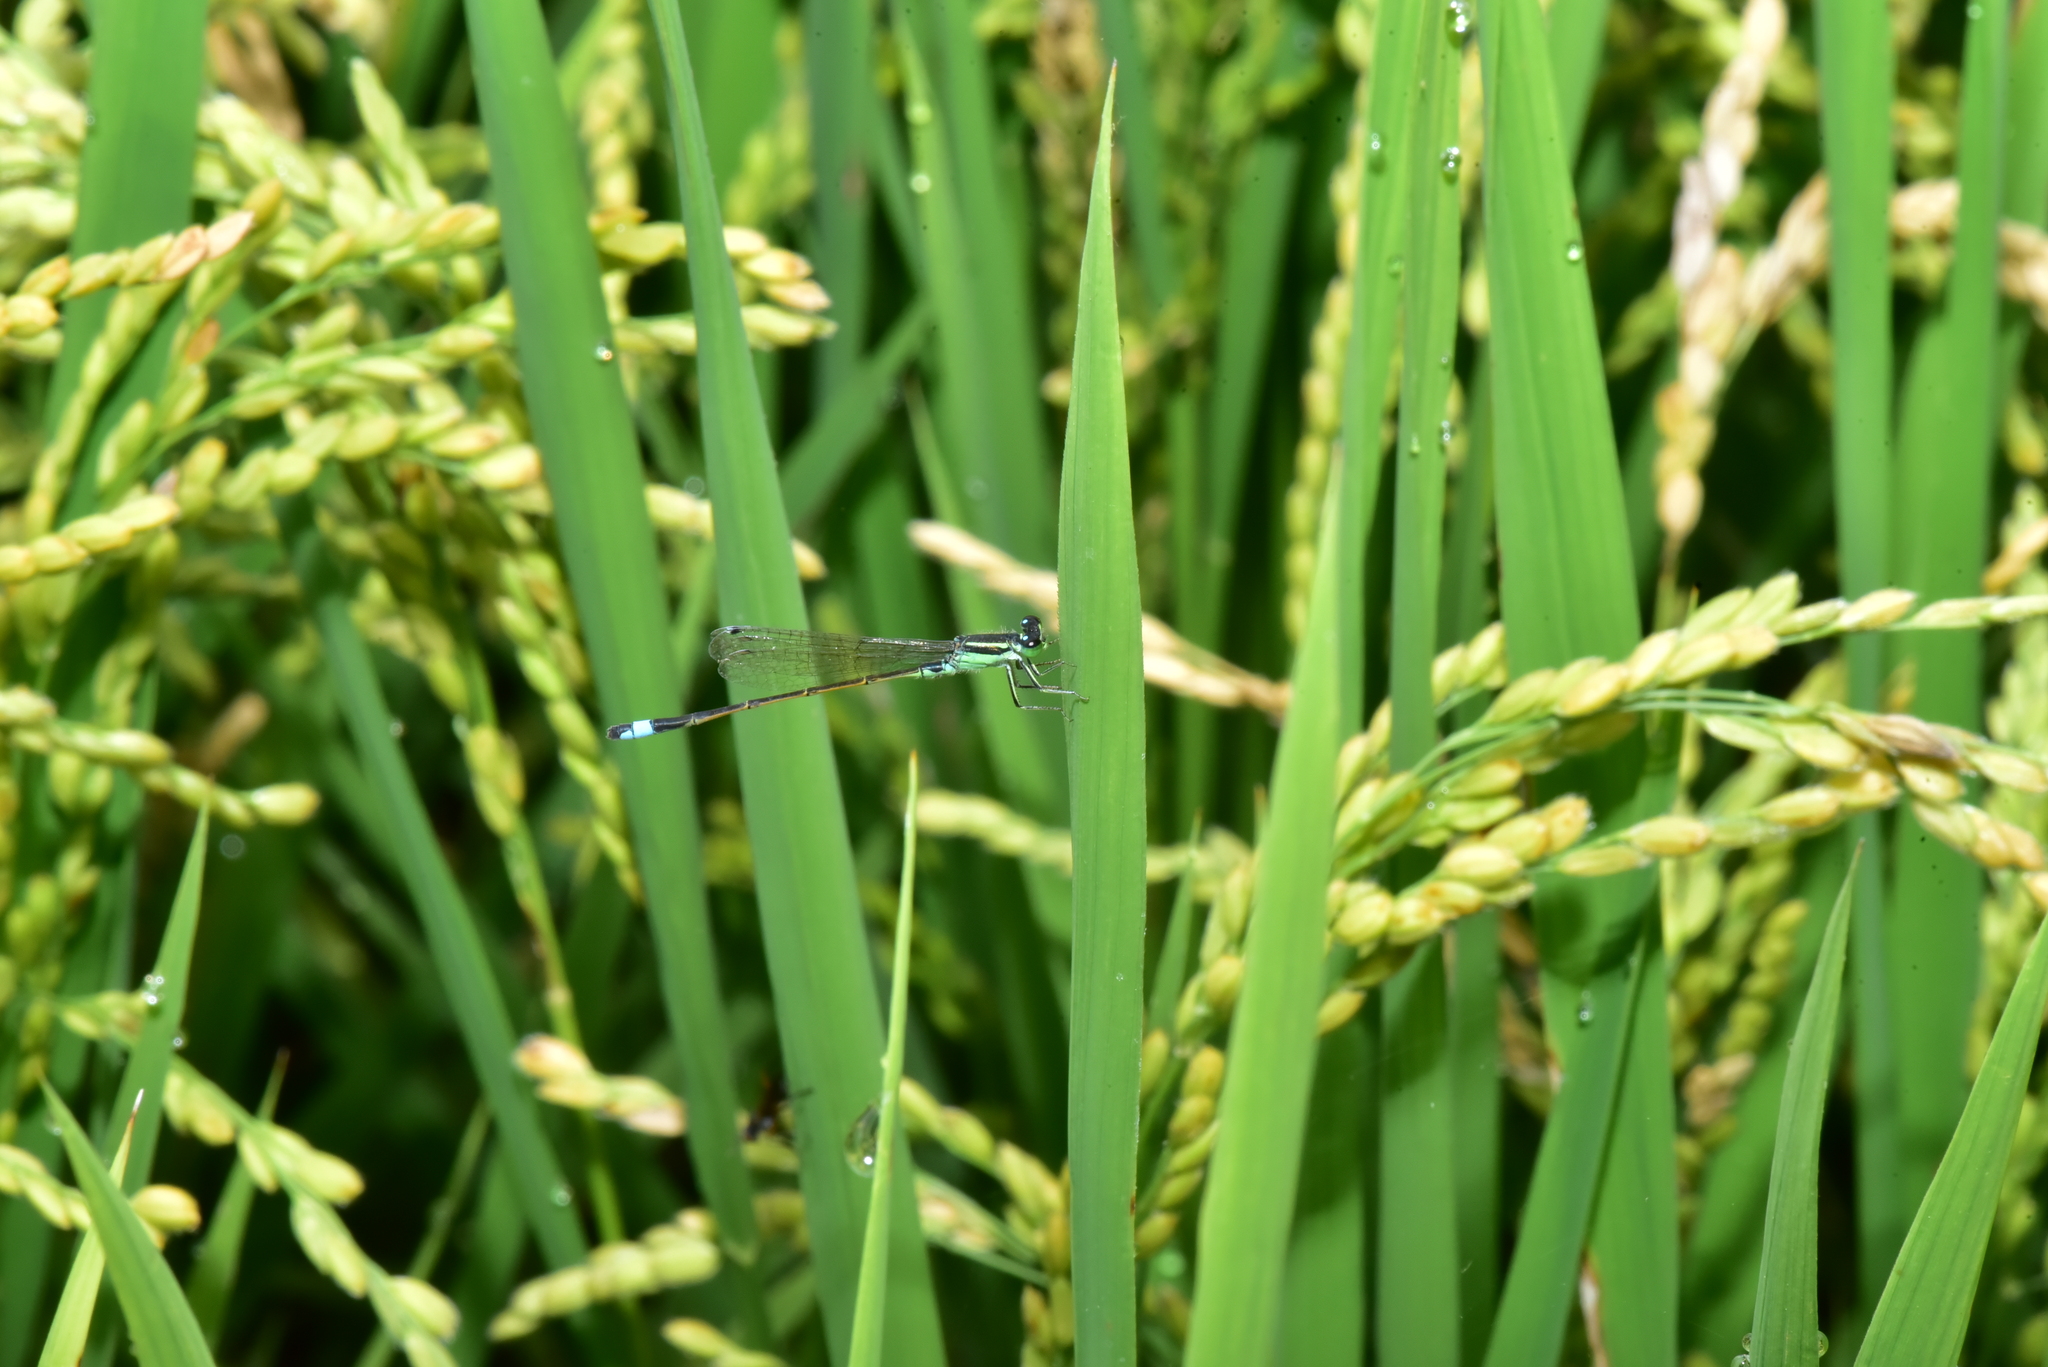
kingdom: Animalia
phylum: Arthropoda
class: Insecta
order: Odonata
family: Coenagrionidae
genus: Ischnura
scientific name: Ischnura senegalensis
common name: Tropical bluetail
